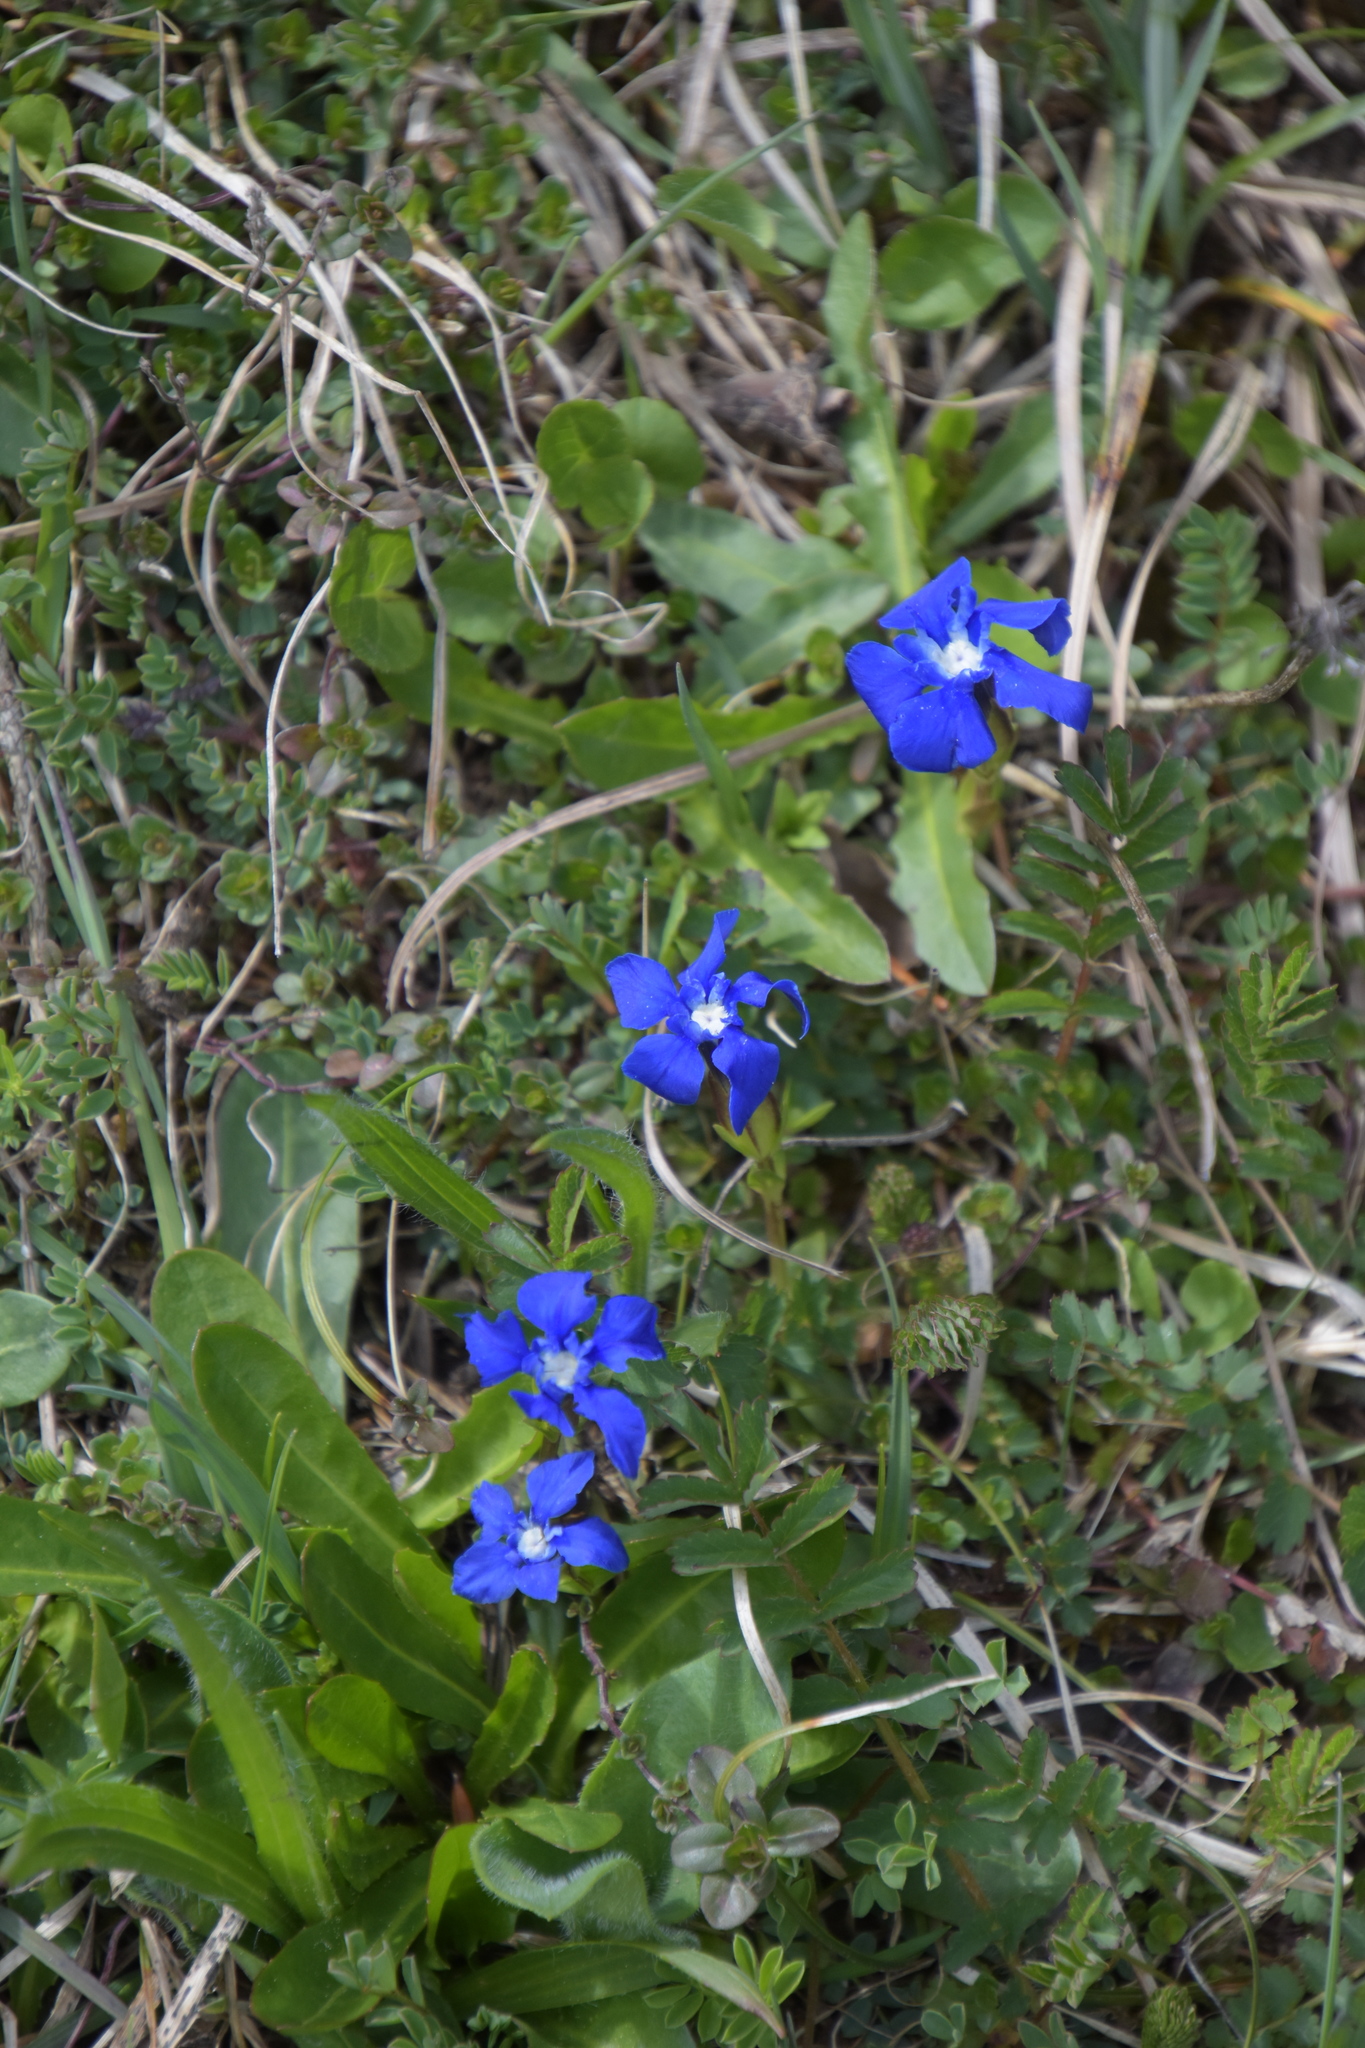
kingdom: Plantae
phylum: Tracheophyta
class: Magnoliopsida
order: Gentianales
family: Gentianaceae
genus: Gentiana
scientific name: Gentiana verna
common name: Spring gentian
